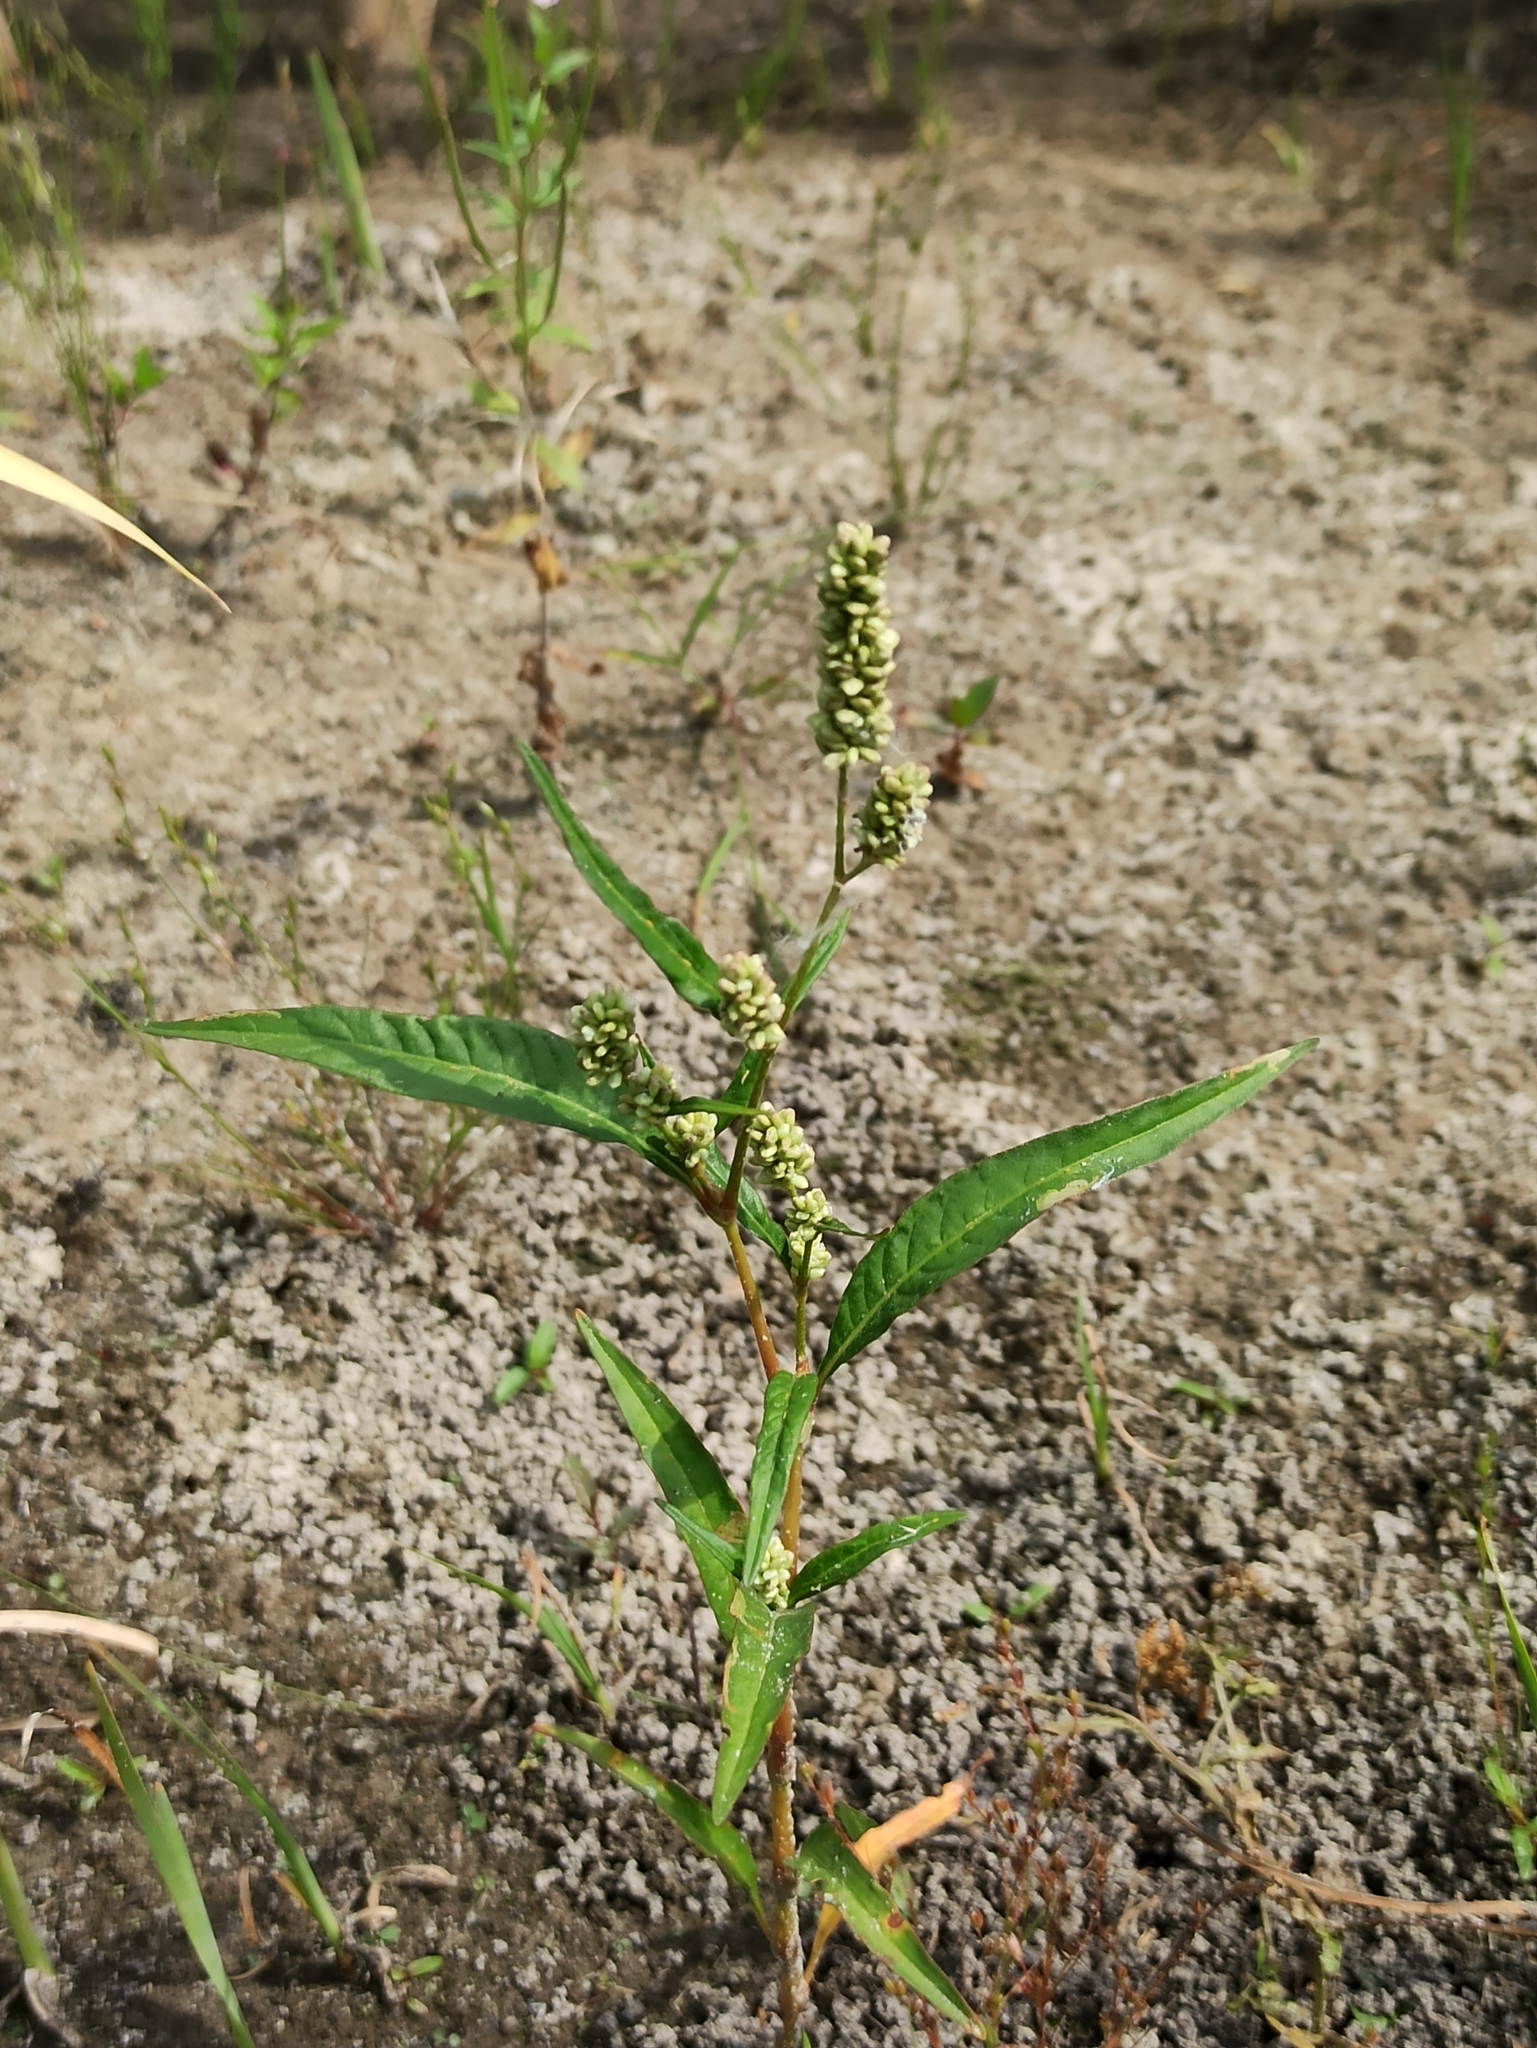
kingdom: Plantae
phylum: Tracheophyta
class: Magnoliopsida
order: Caryophyllales
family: Polygonaceae
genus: Persicaria
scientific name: Persicaria lapathifolia
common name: Curlytop knotweed
